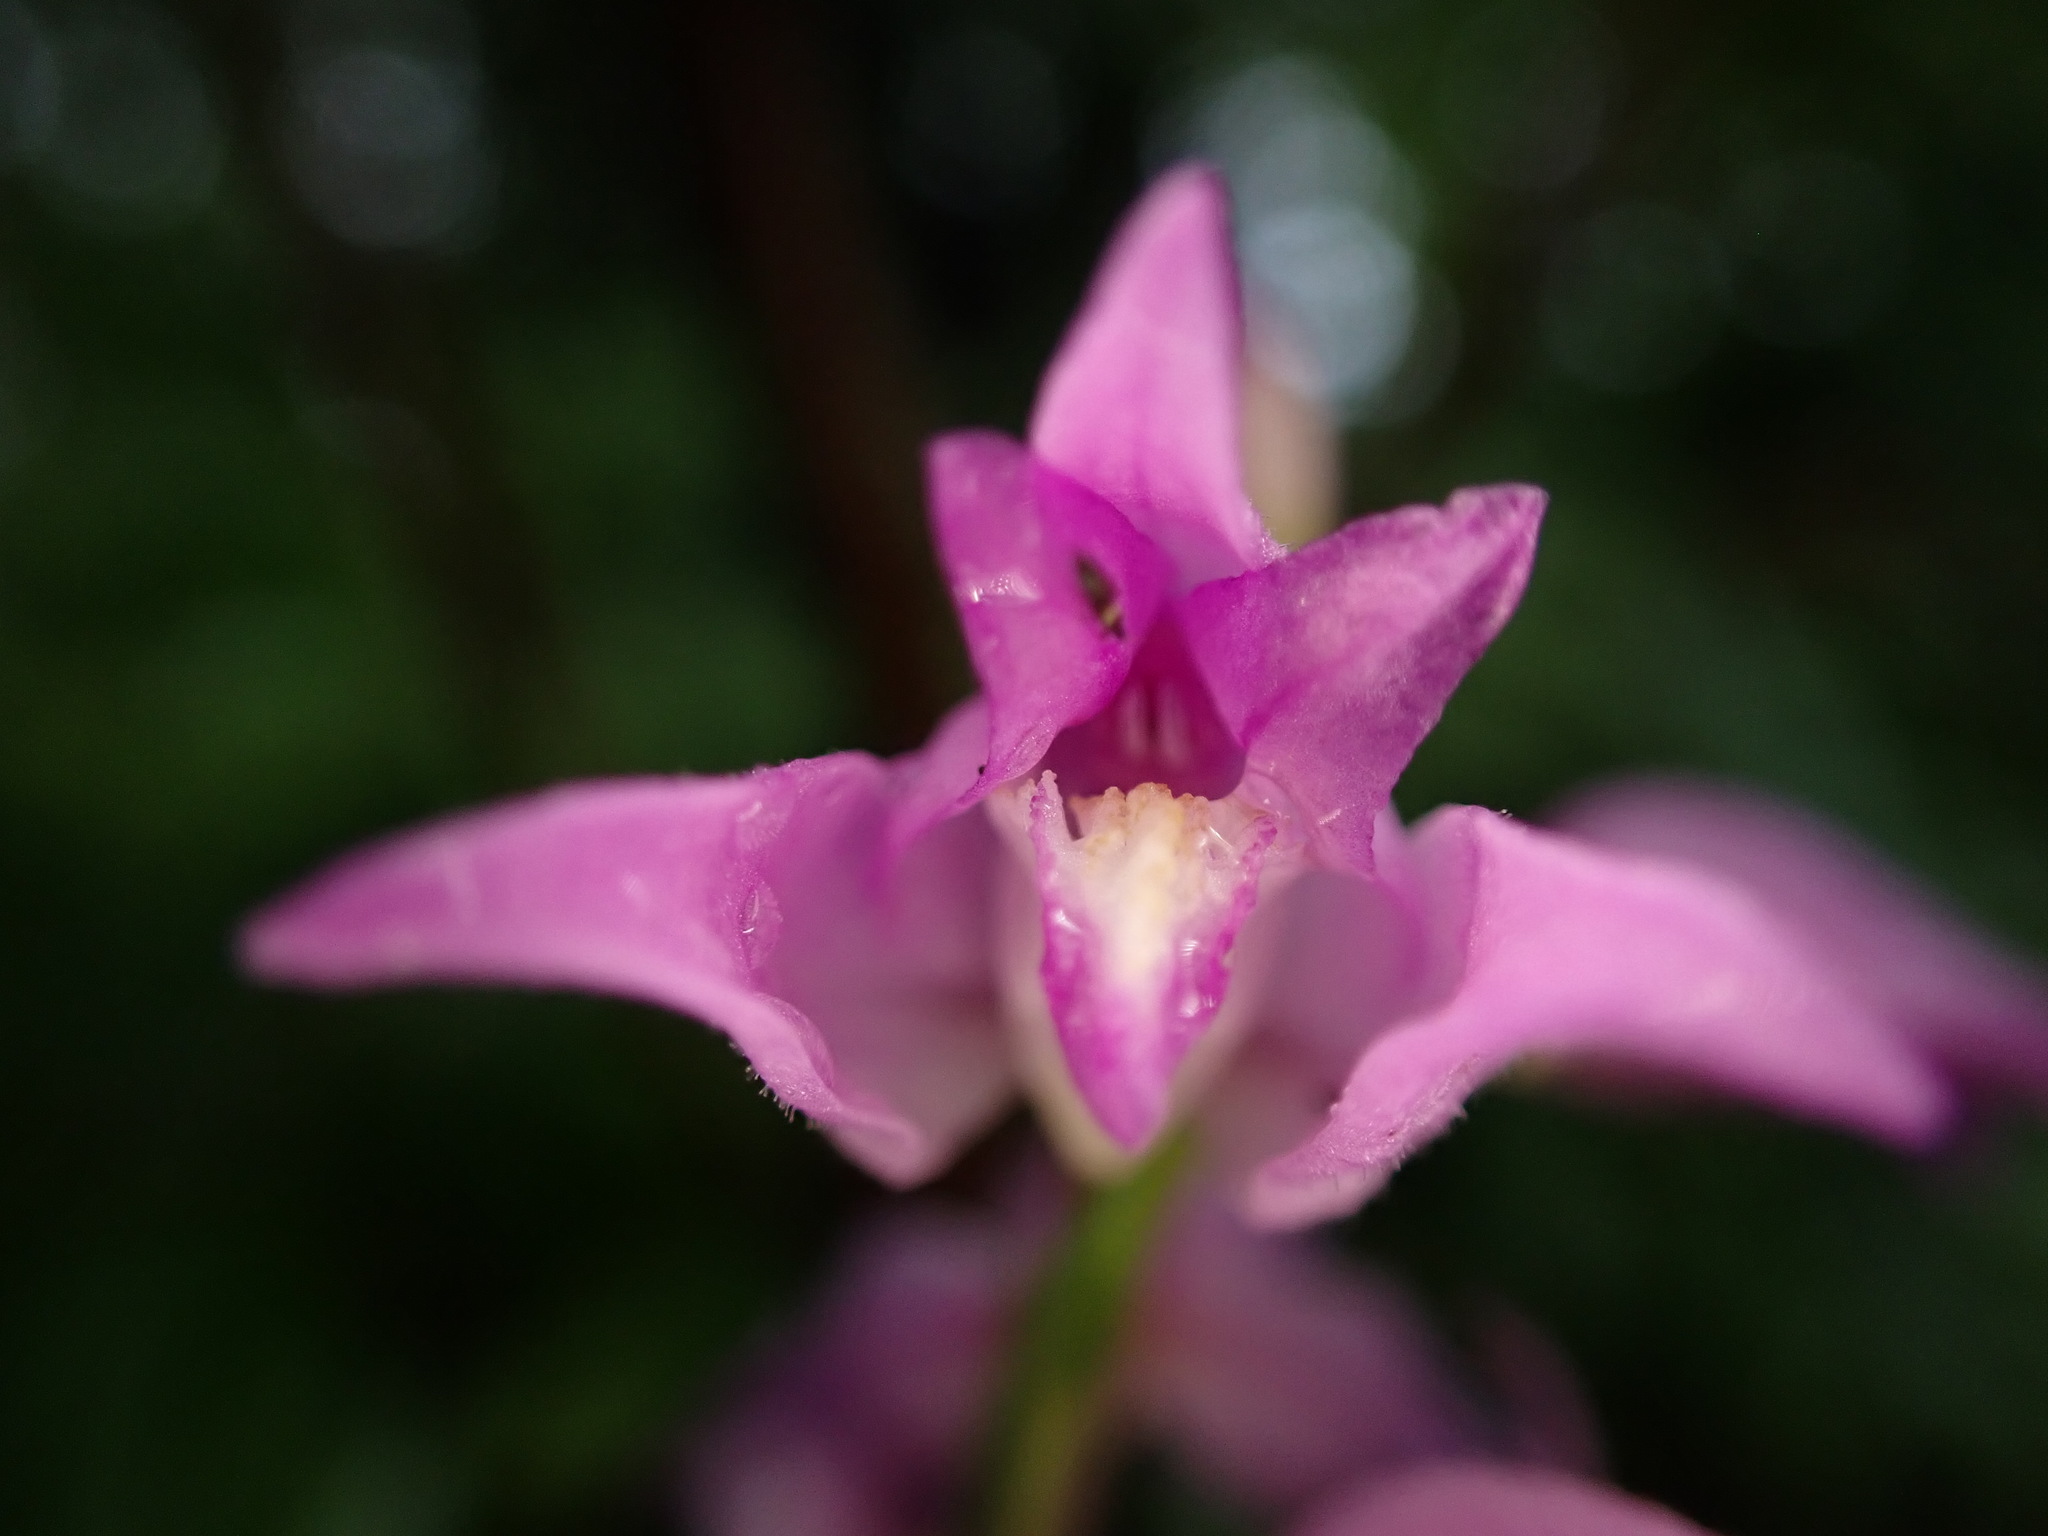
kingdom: Plantae
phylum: Tracheophyta
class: Liliopsida
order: Asparagales
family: Orchidaceae
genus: Cephalanthera
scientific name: Cephalanthera rubra
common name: Red helleborine
